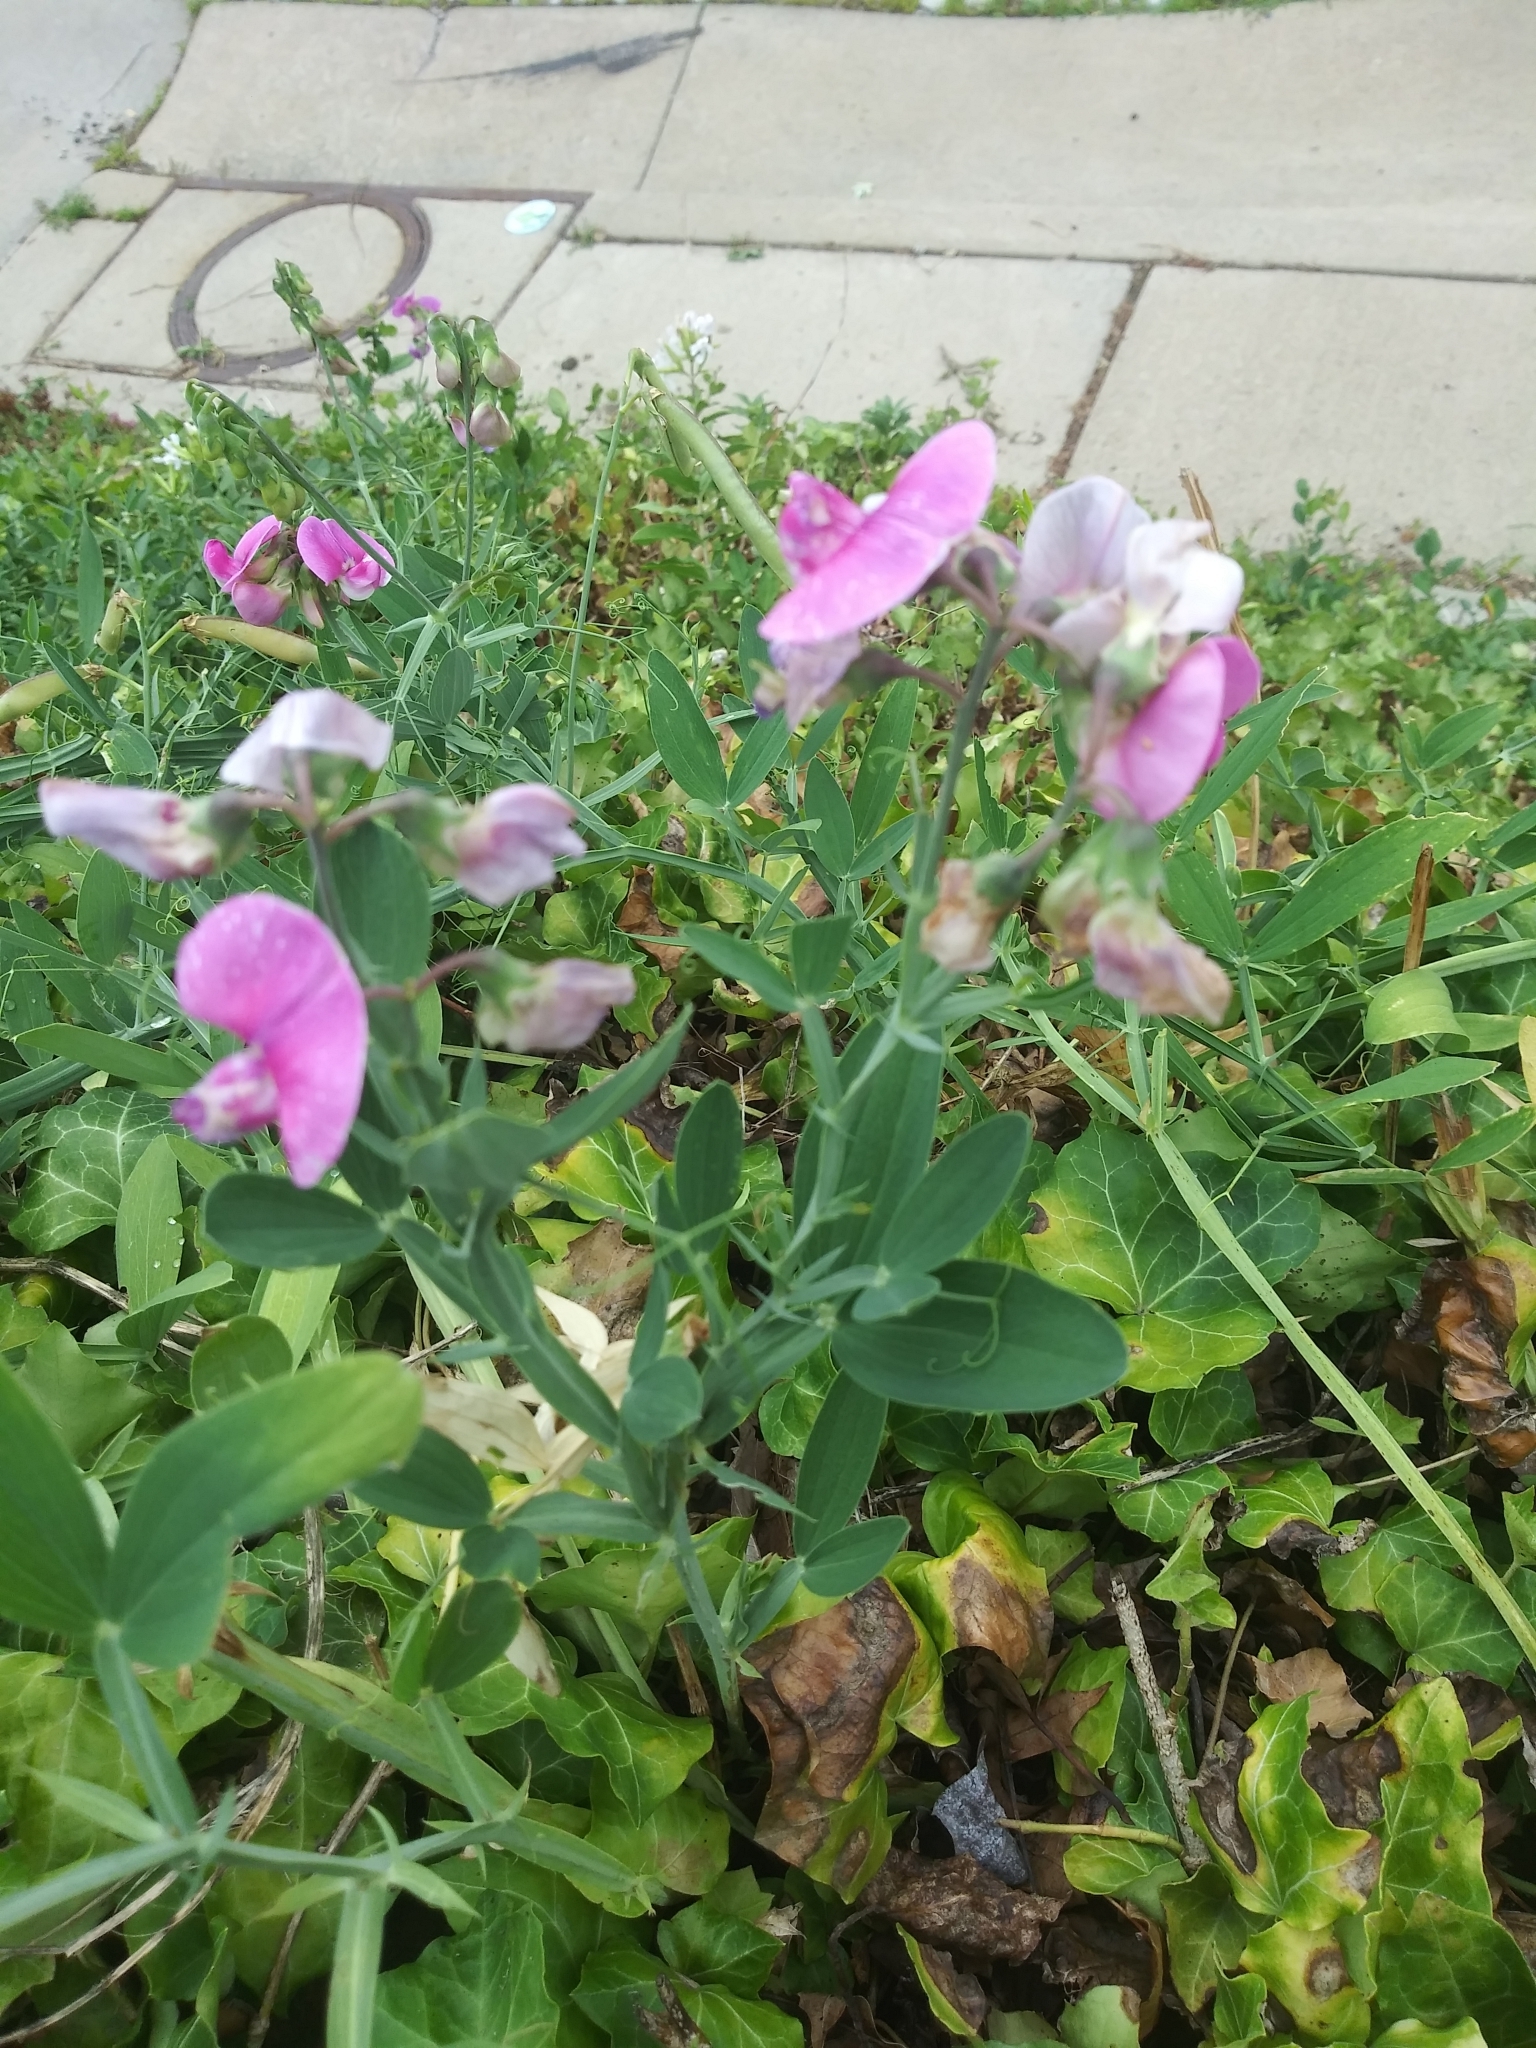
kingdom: Plantae
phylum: Tracheophyta
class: Magnoliopsida
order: Fabales
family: Fabaceae
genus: Lathyrus
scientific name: Lathyrus latifolius
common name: Perennial pea
